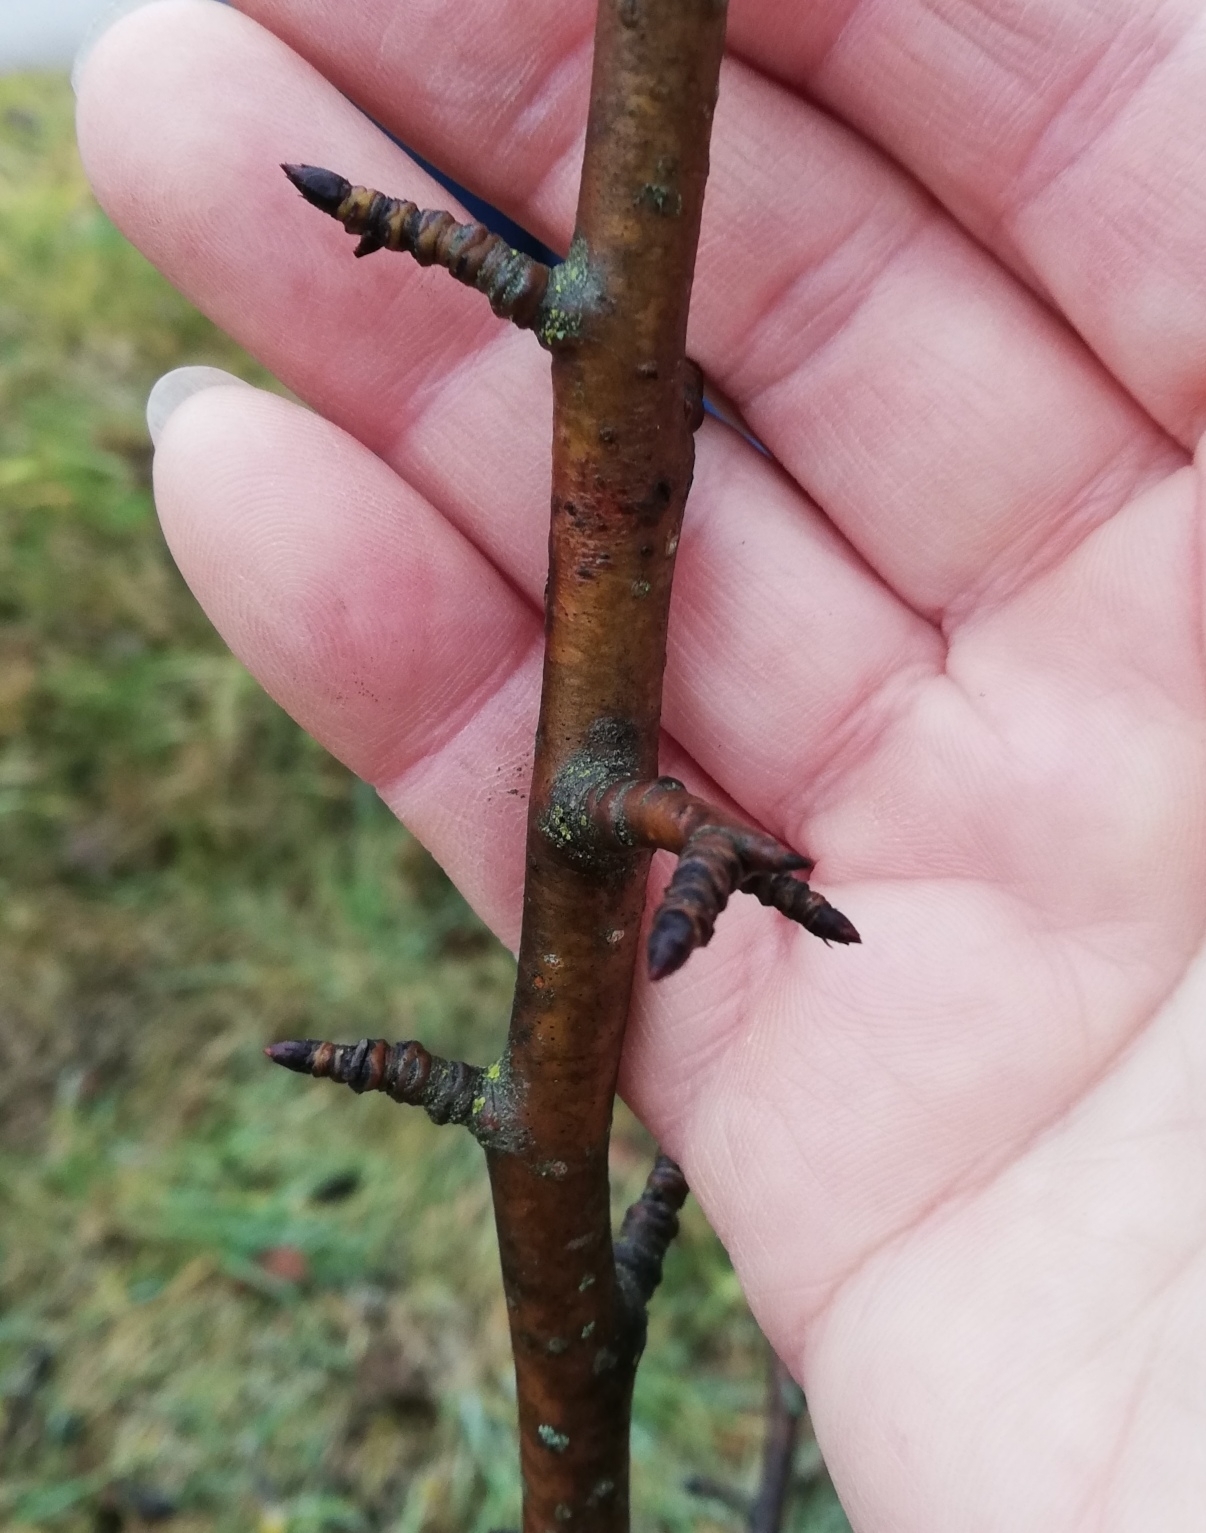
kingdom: Plantae
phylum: Tracheophyta
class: Magnoliopsida
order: Rosales
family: Rosaceae
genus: Pyrus
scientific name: Pyrus communis
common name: Pear
